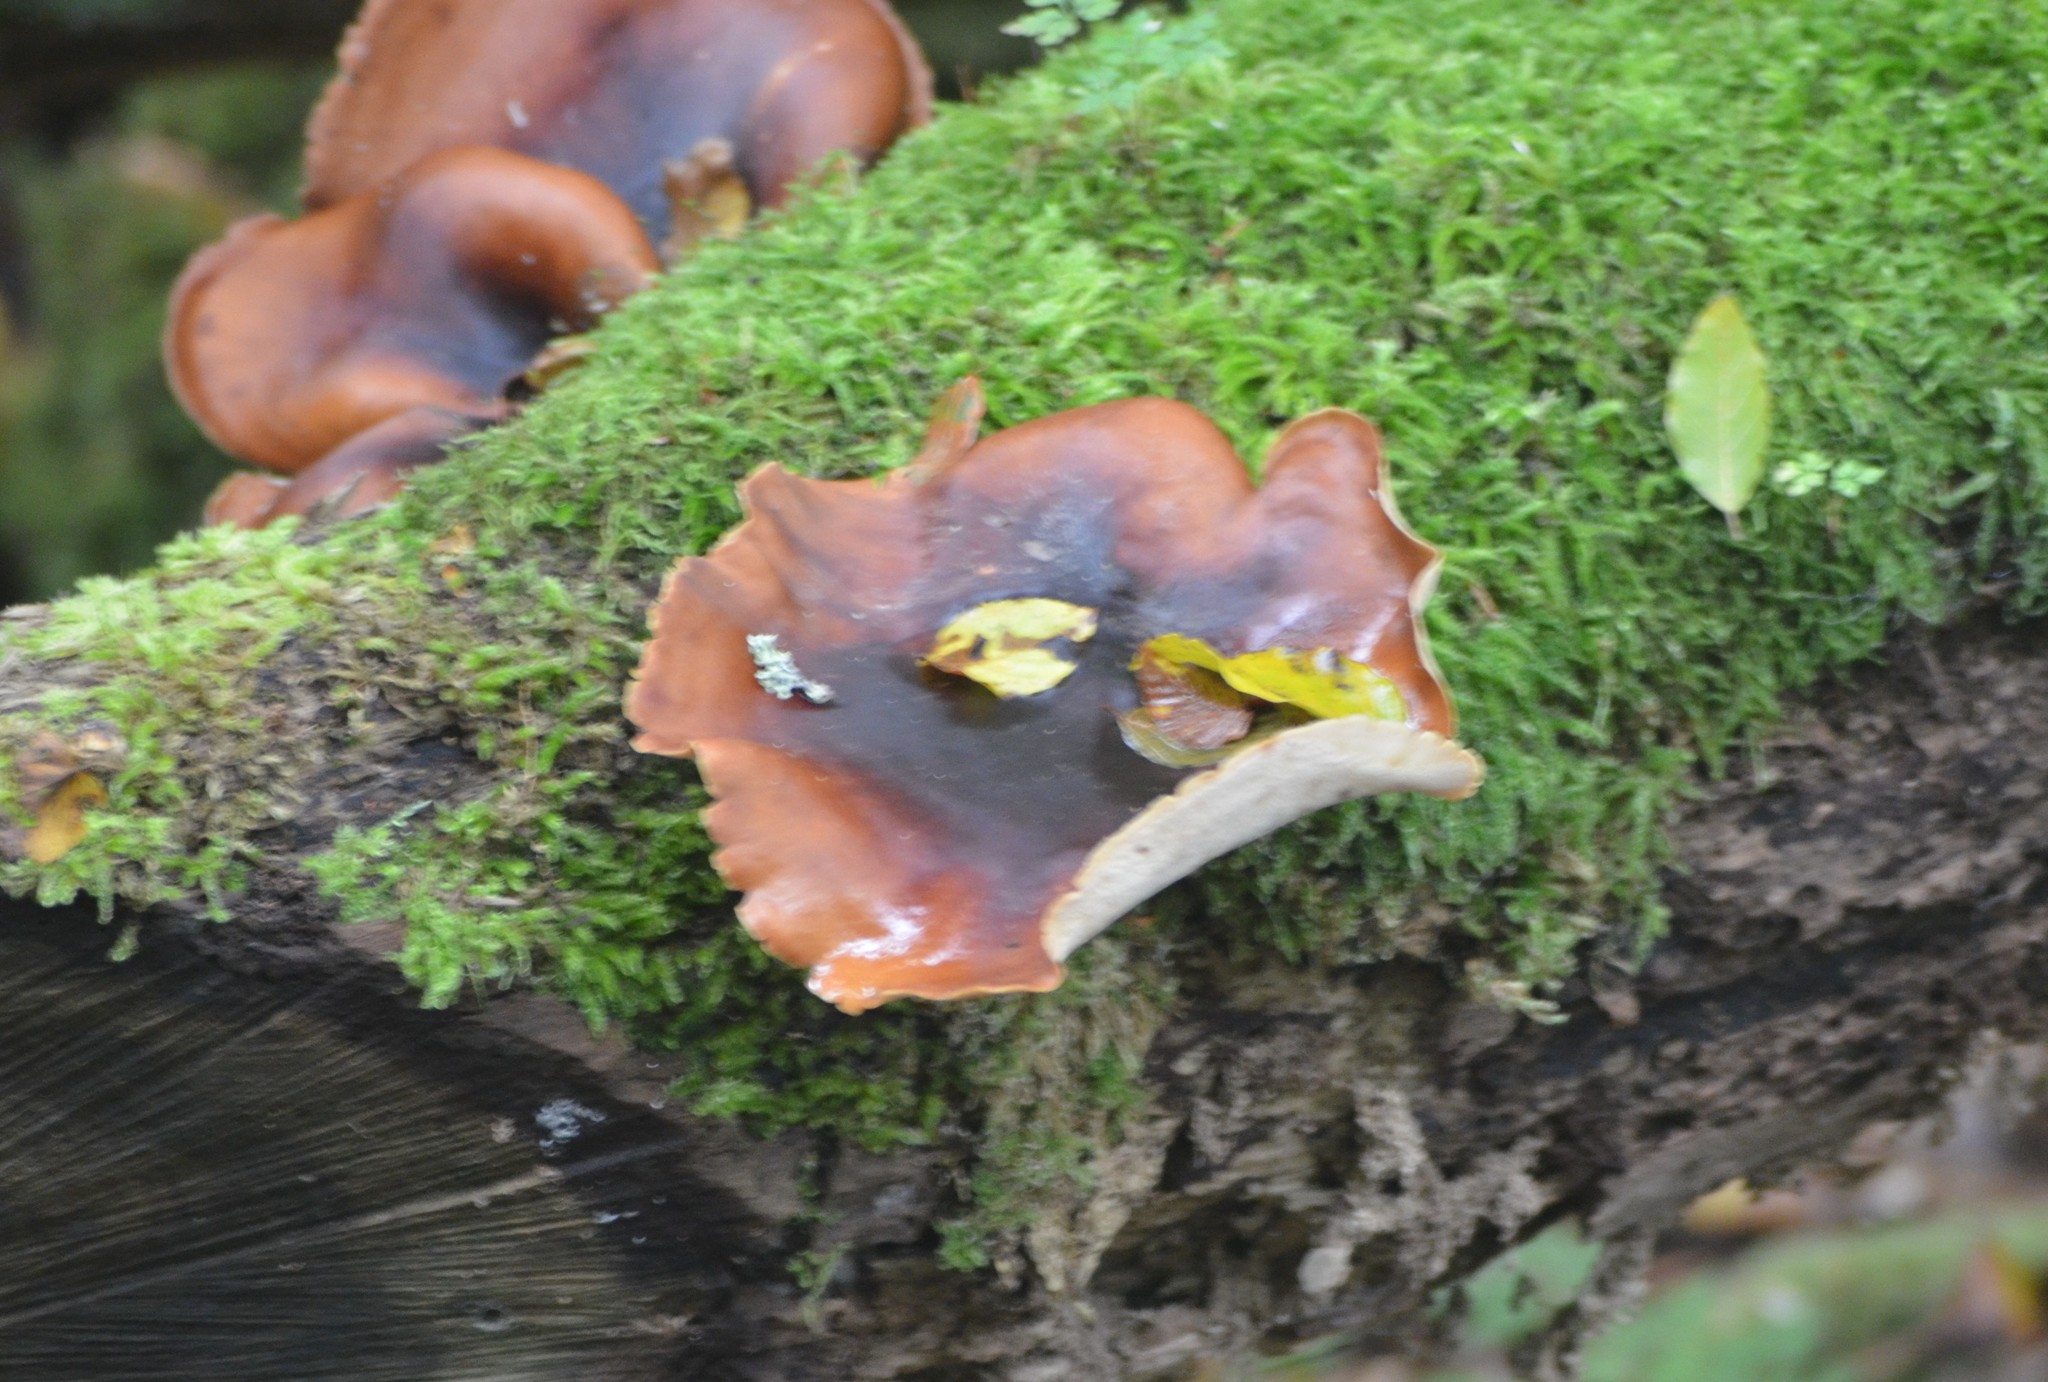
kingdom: Fungi
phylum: Basidiomycota
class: Agaricomycetes
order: Polyporales
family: Polyporaceae
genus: Picipes
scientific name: Picipes badius
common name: Bay polypore
